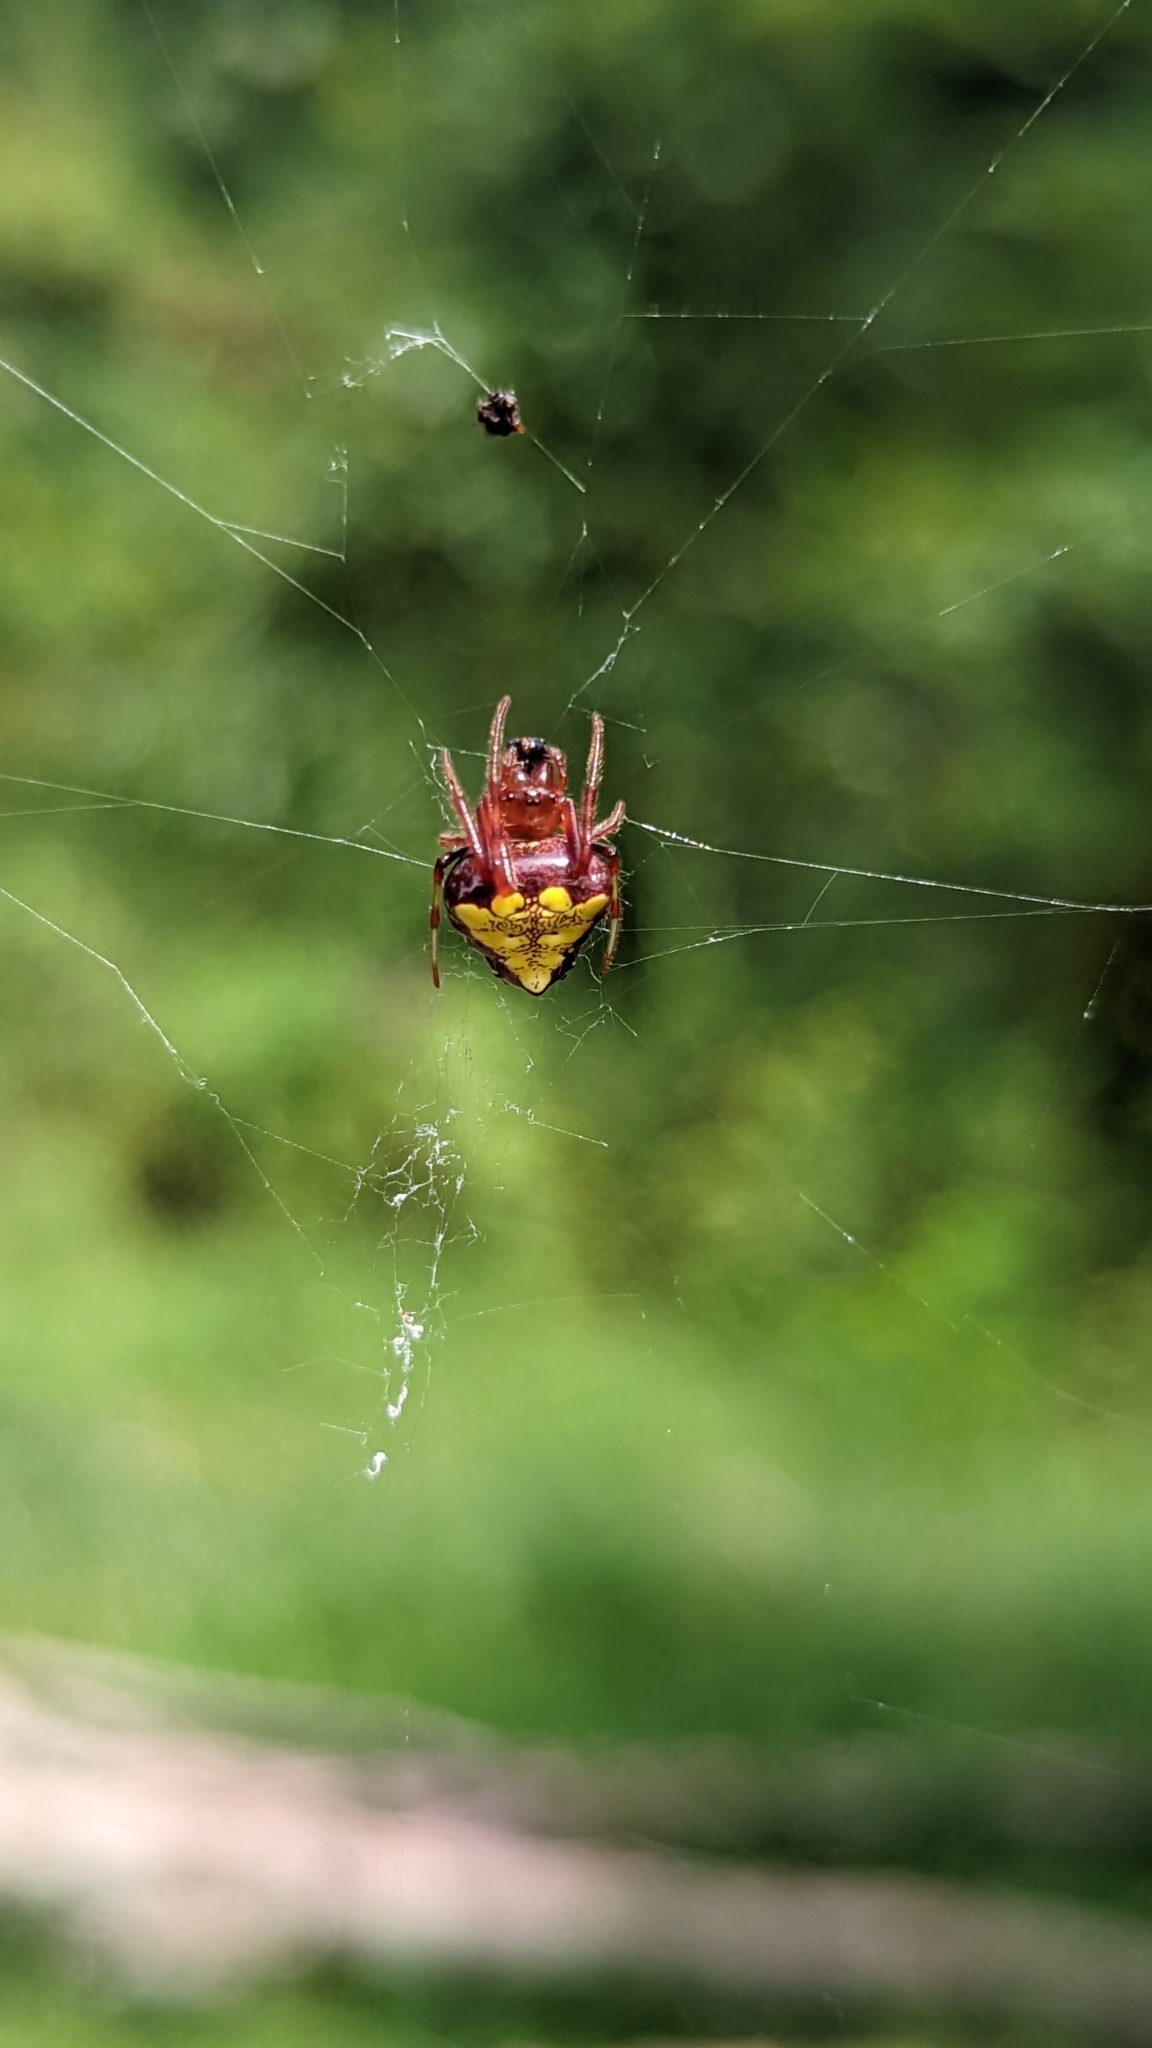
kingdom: Animalia
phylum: Arthropoda
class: Arachnida
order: Araneae
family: Araneidae
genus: Verrucosa
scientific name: Verrucosa arenata
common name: Orb weavers
